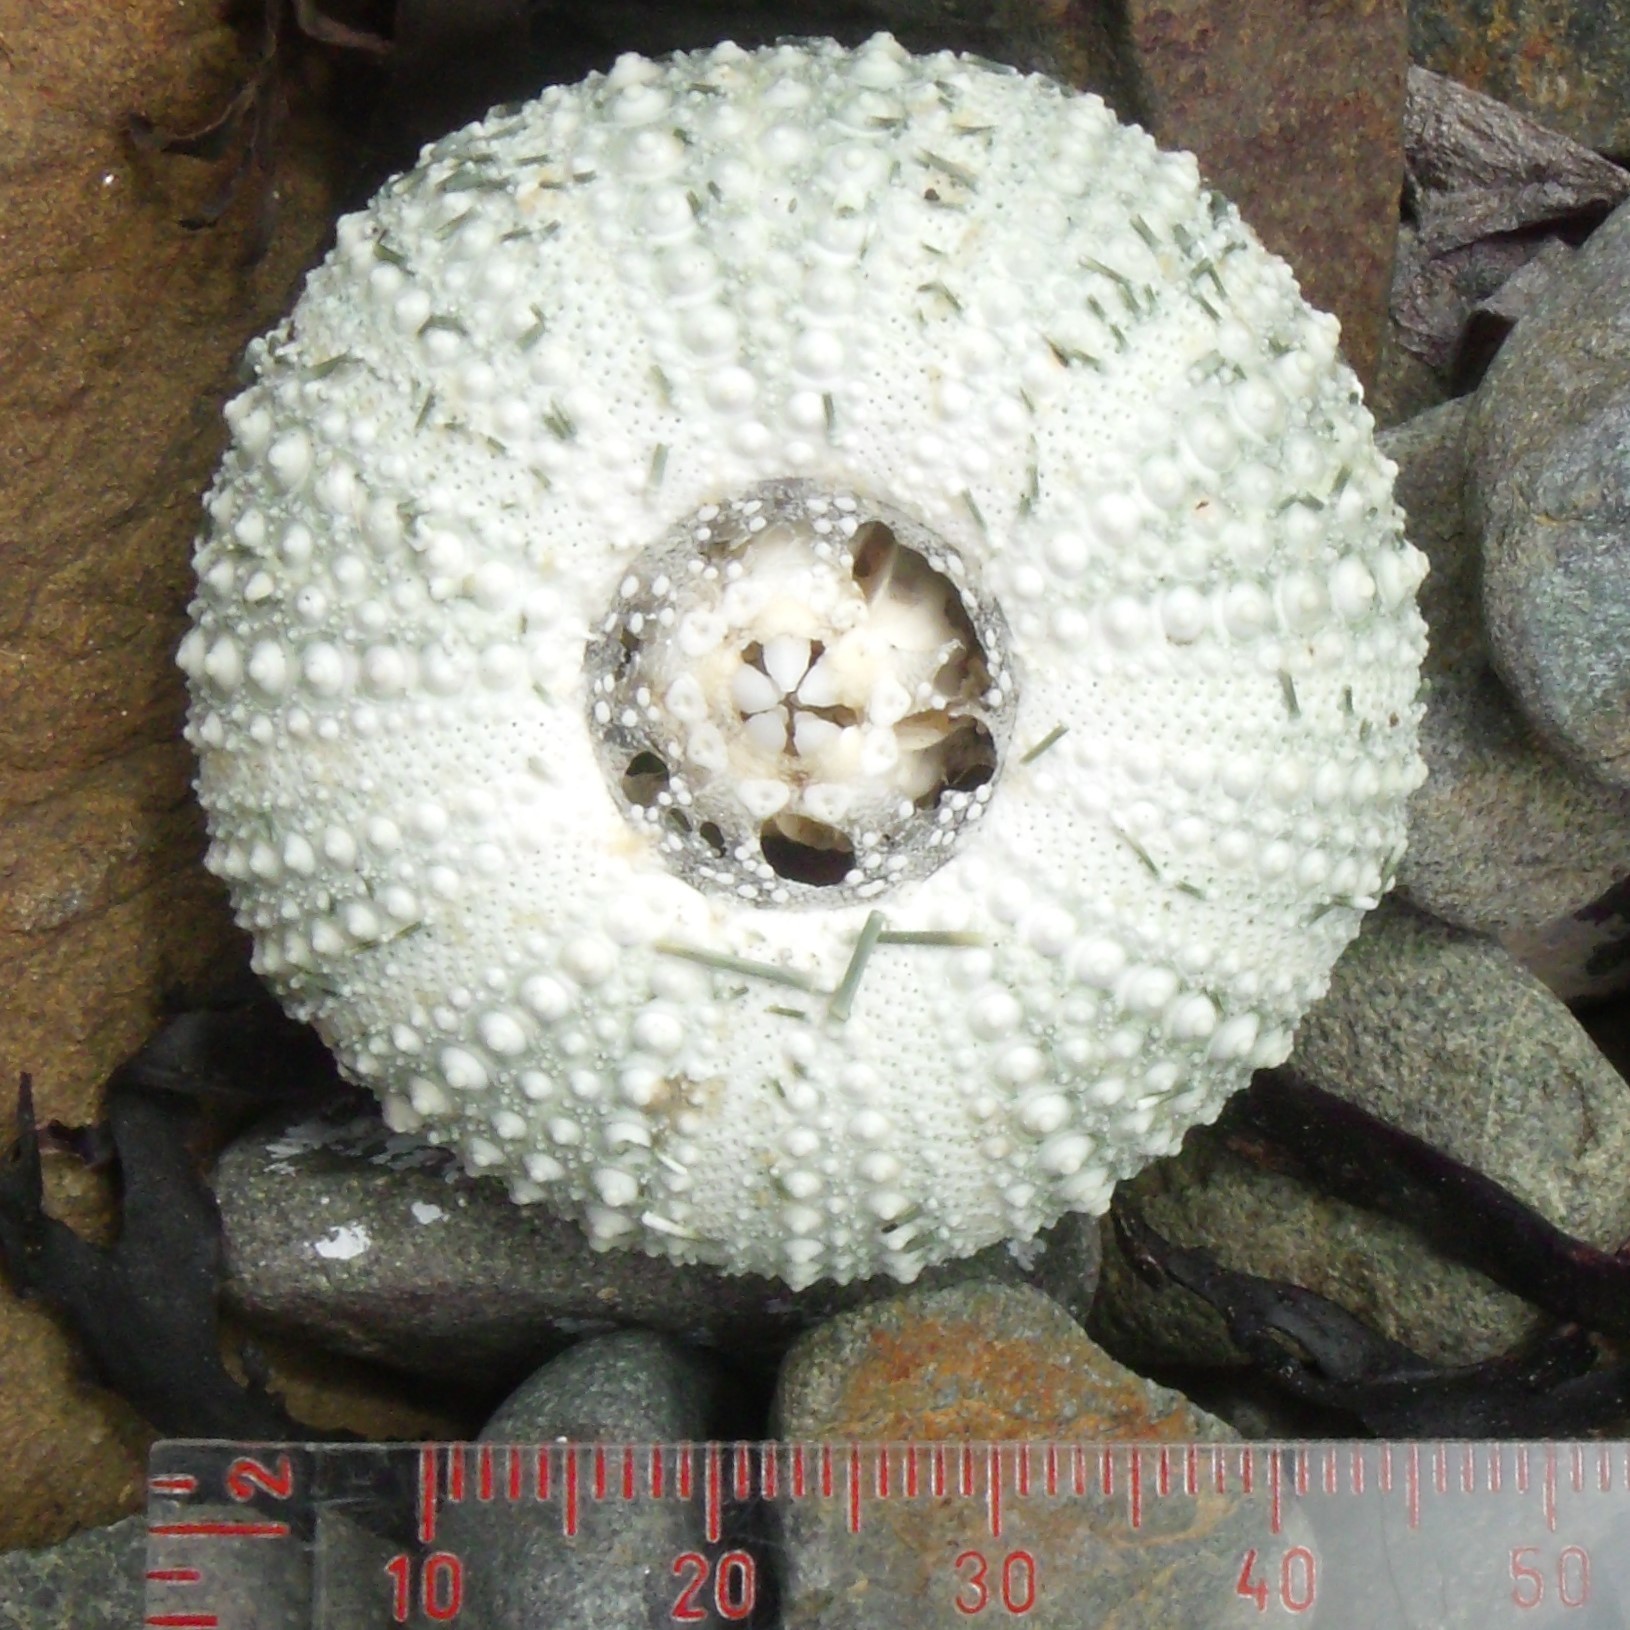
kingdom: Animalia
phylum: Echinodermata
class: Echinoidea
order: Camarodonta
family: Echinometridae
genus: Evechinus
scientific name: Evechinus chloroticus
